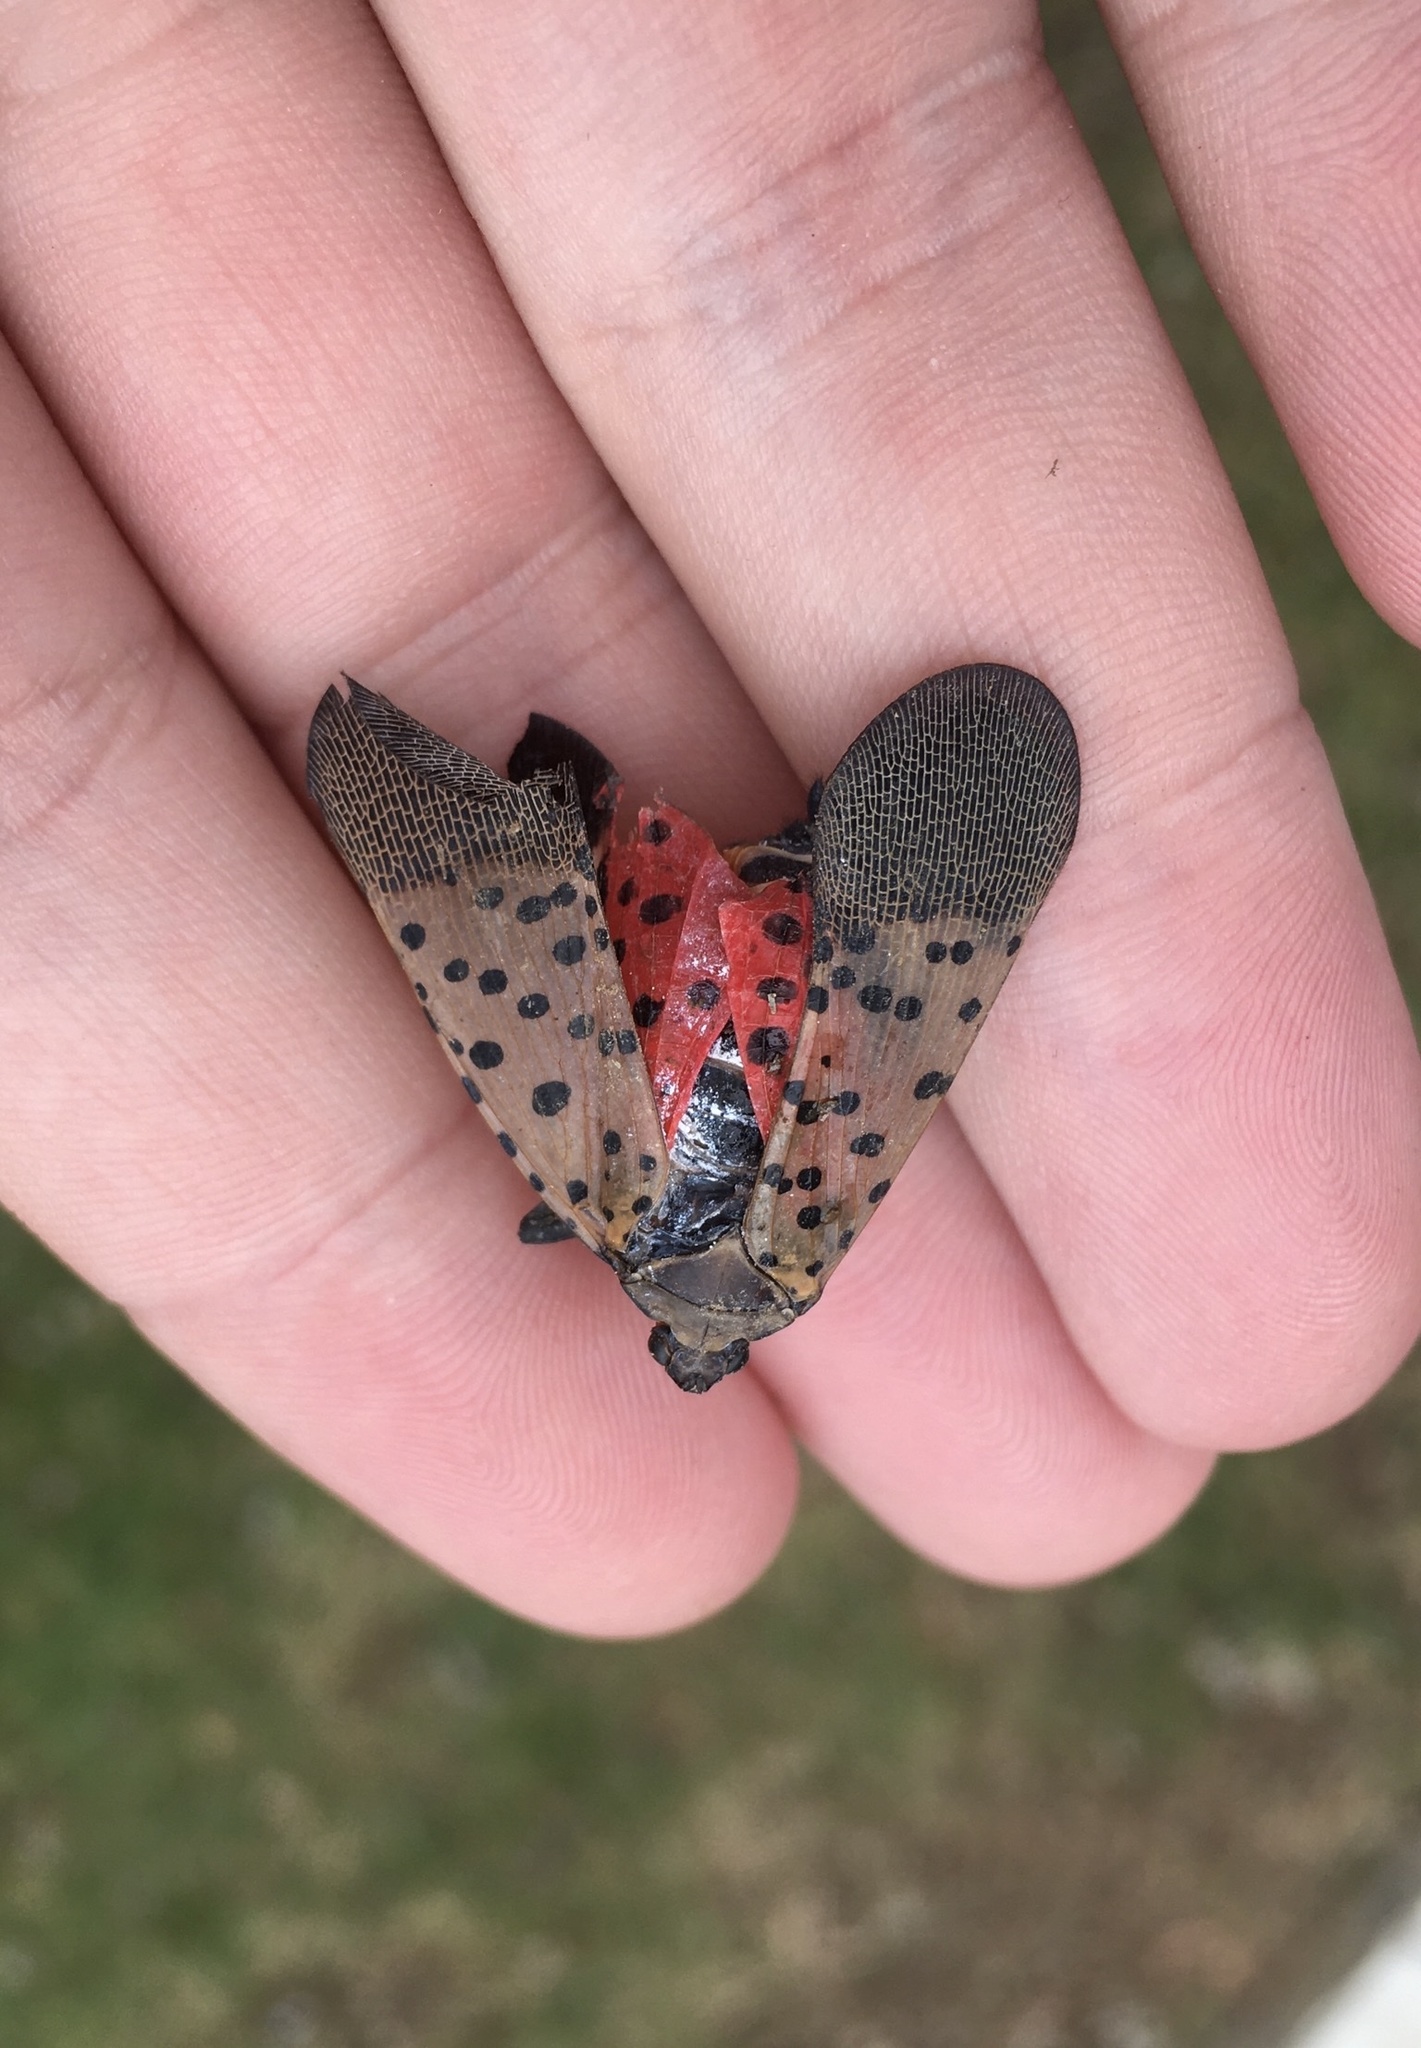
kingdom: Animalia
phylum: Arthropoda
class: Insecta
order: Hemiptera
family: Fulgoridae
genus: Lycorma
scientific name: Lycorma delicatula
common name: Spotted lanternfly
